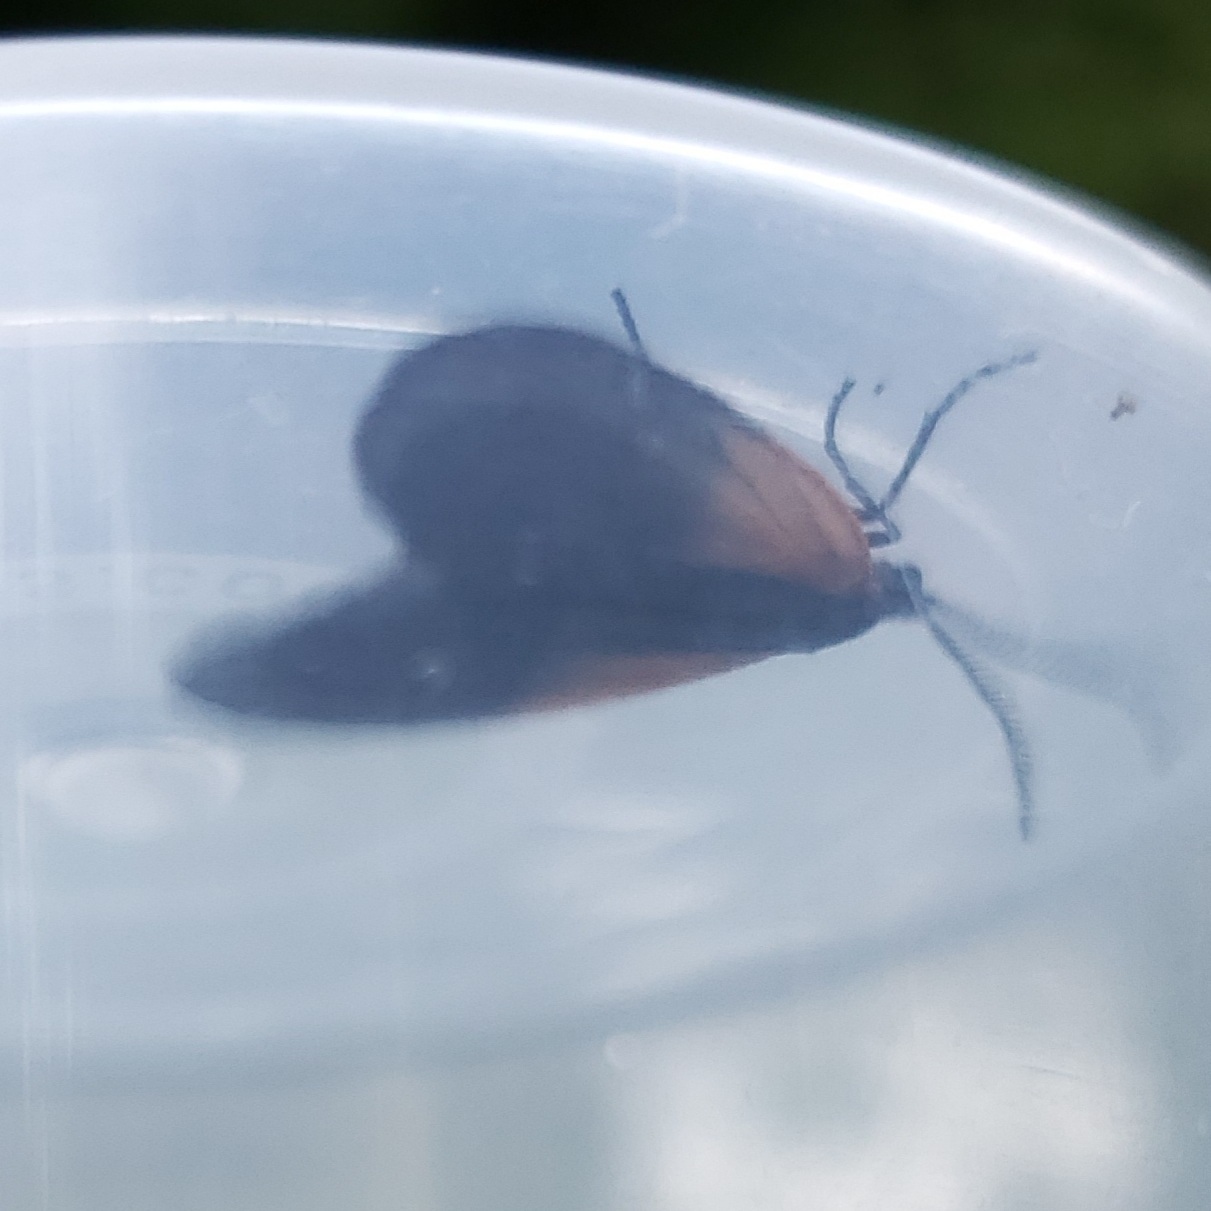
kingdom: Animalia
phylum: Arthropoda
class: Insecta
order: Lepidoptera
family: Zygaenidae
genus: Malthaca
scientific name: Malthaca dimidiata
